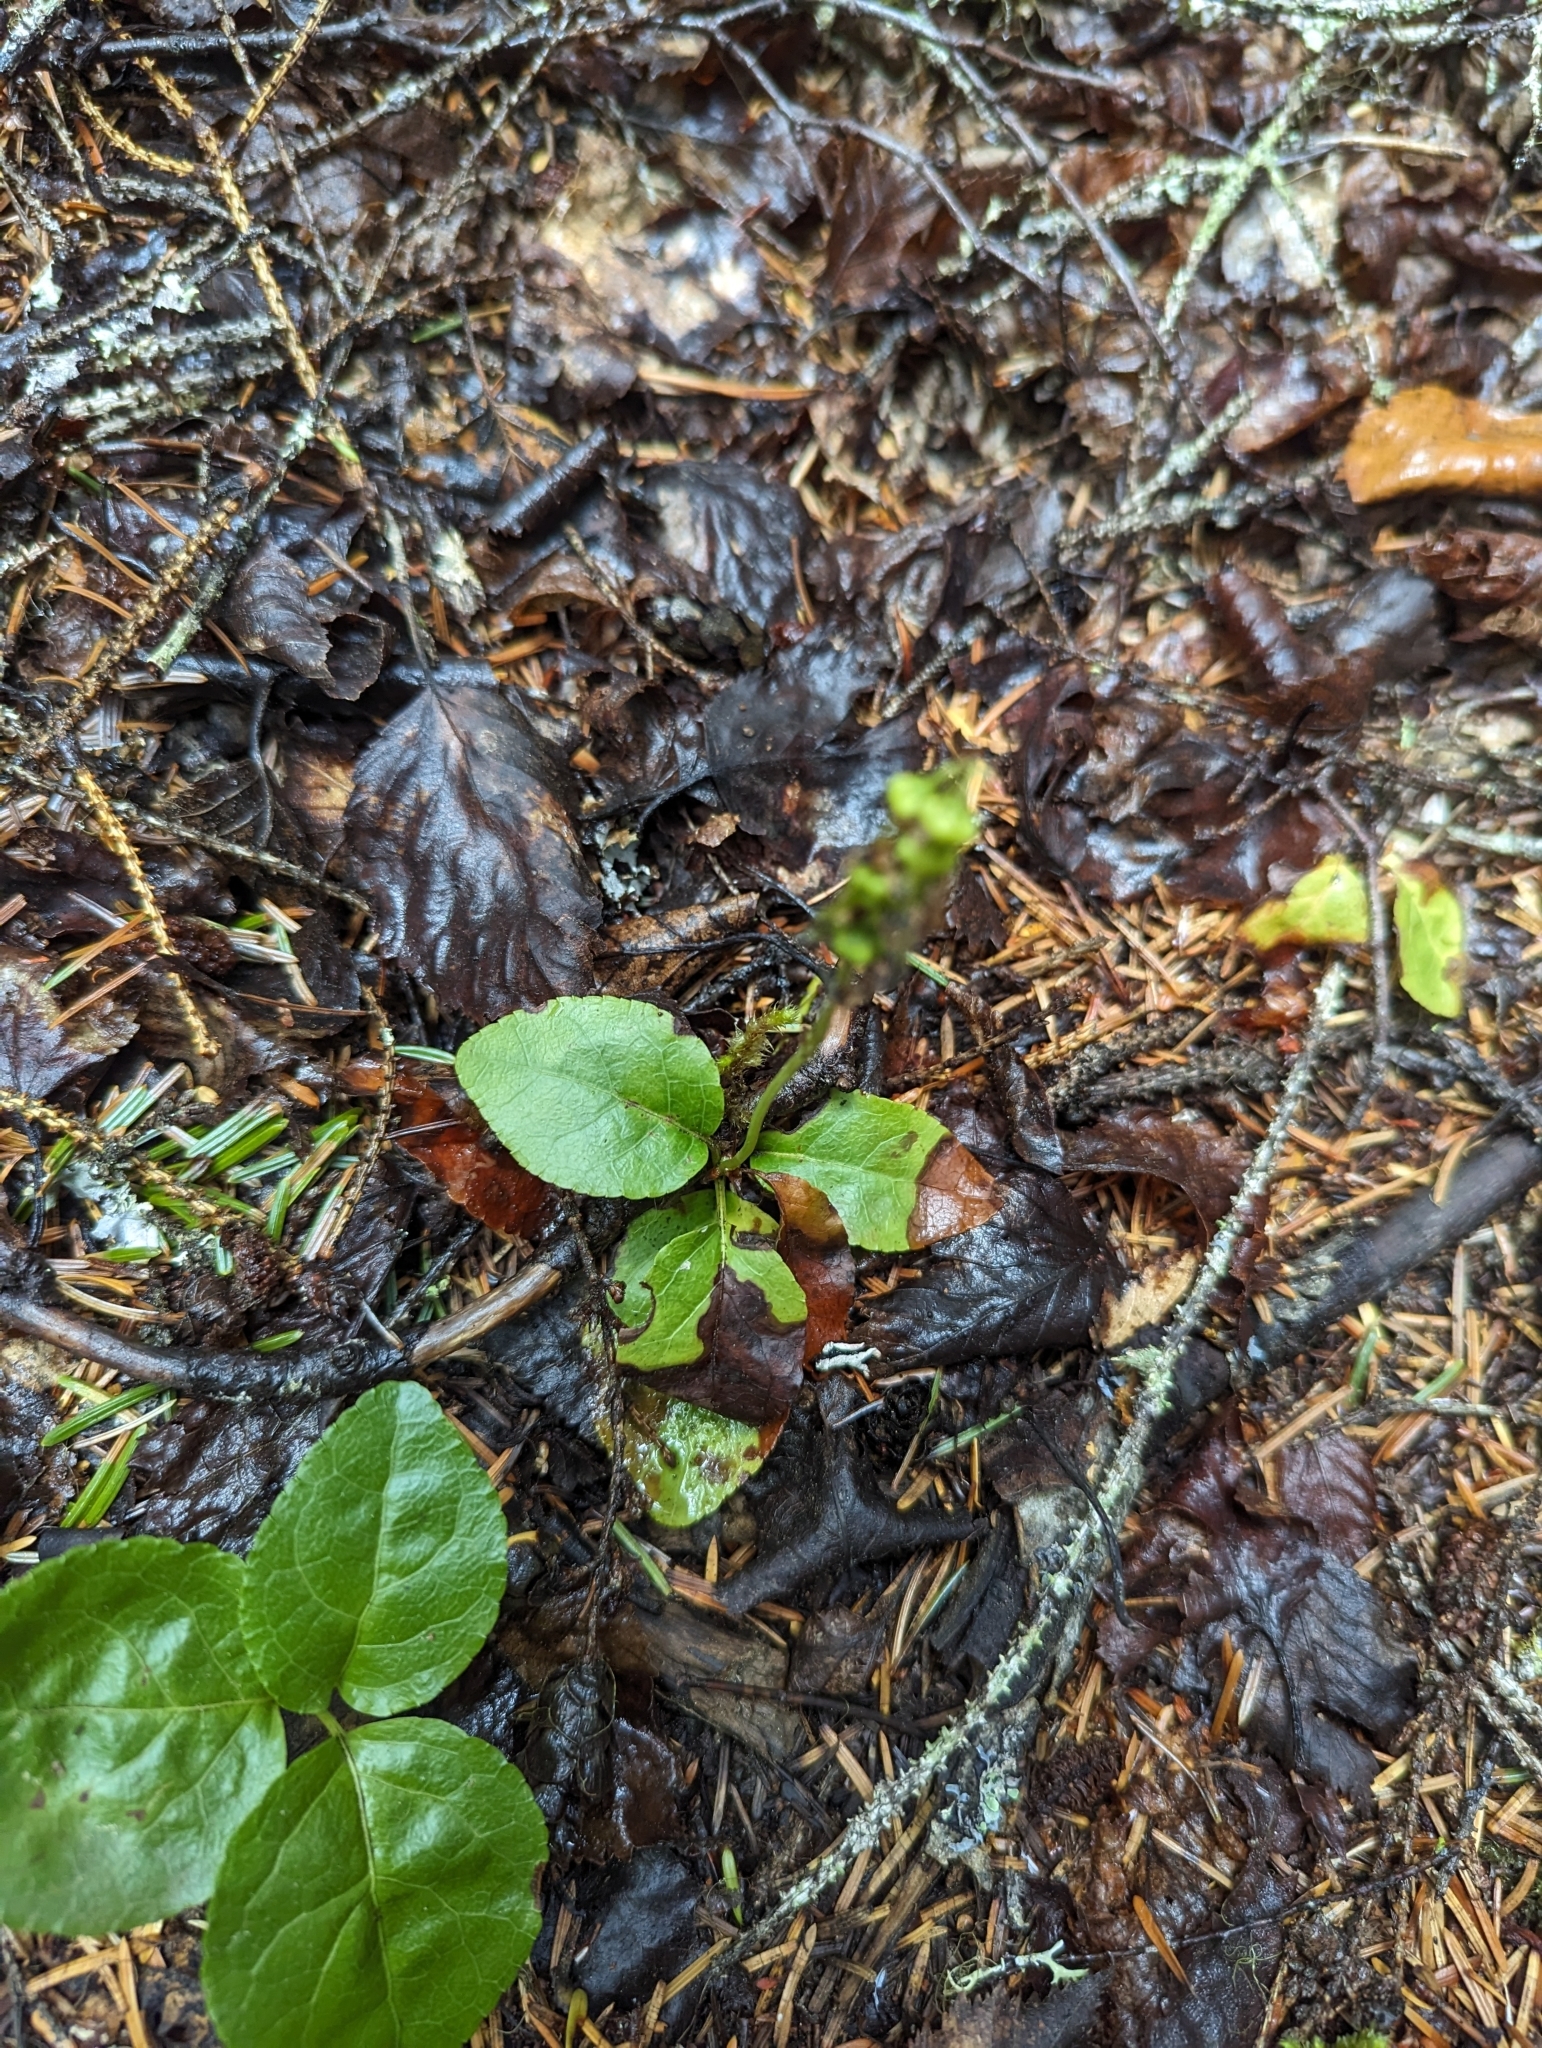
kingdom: Plantae
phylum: Tracheophyta
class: Magnoliopsida
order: Ericales
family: Ericaceae
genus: Orthilia
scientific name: Orthilia secunda
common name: One-sided orthilia
